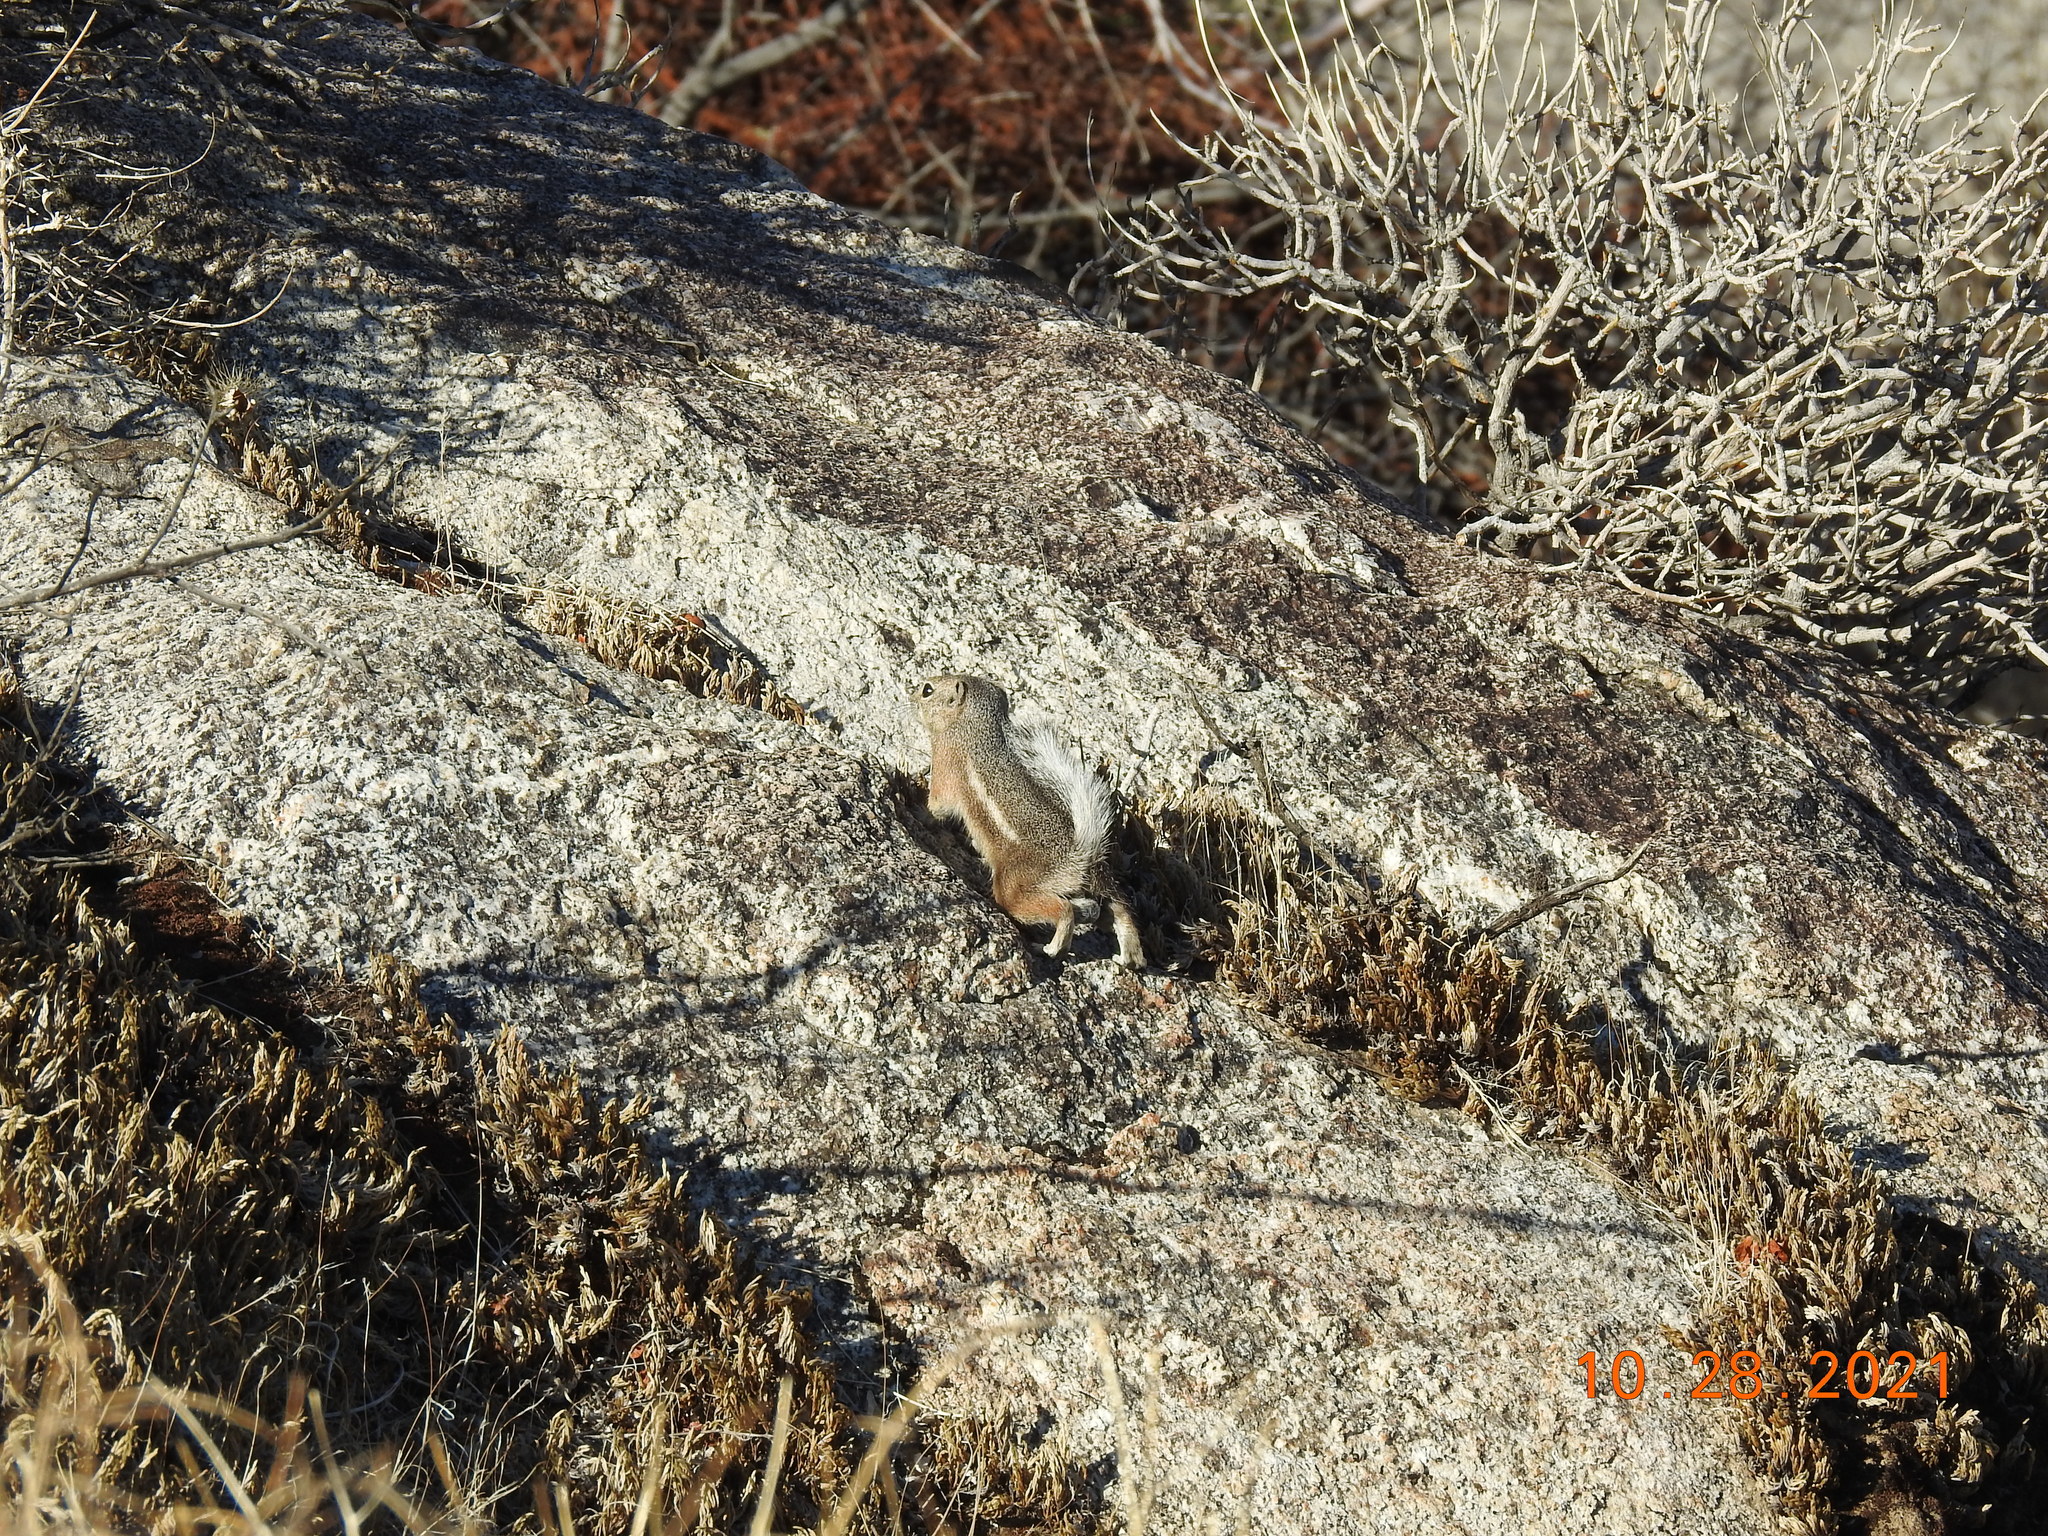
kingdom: Animalia
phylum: Chordata
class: Mammalia
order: Rodentia
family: Sciuridae
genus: Ammospermophilus
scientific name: Ammospermophilus leucurus
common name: White-tailed antelope squirrel
